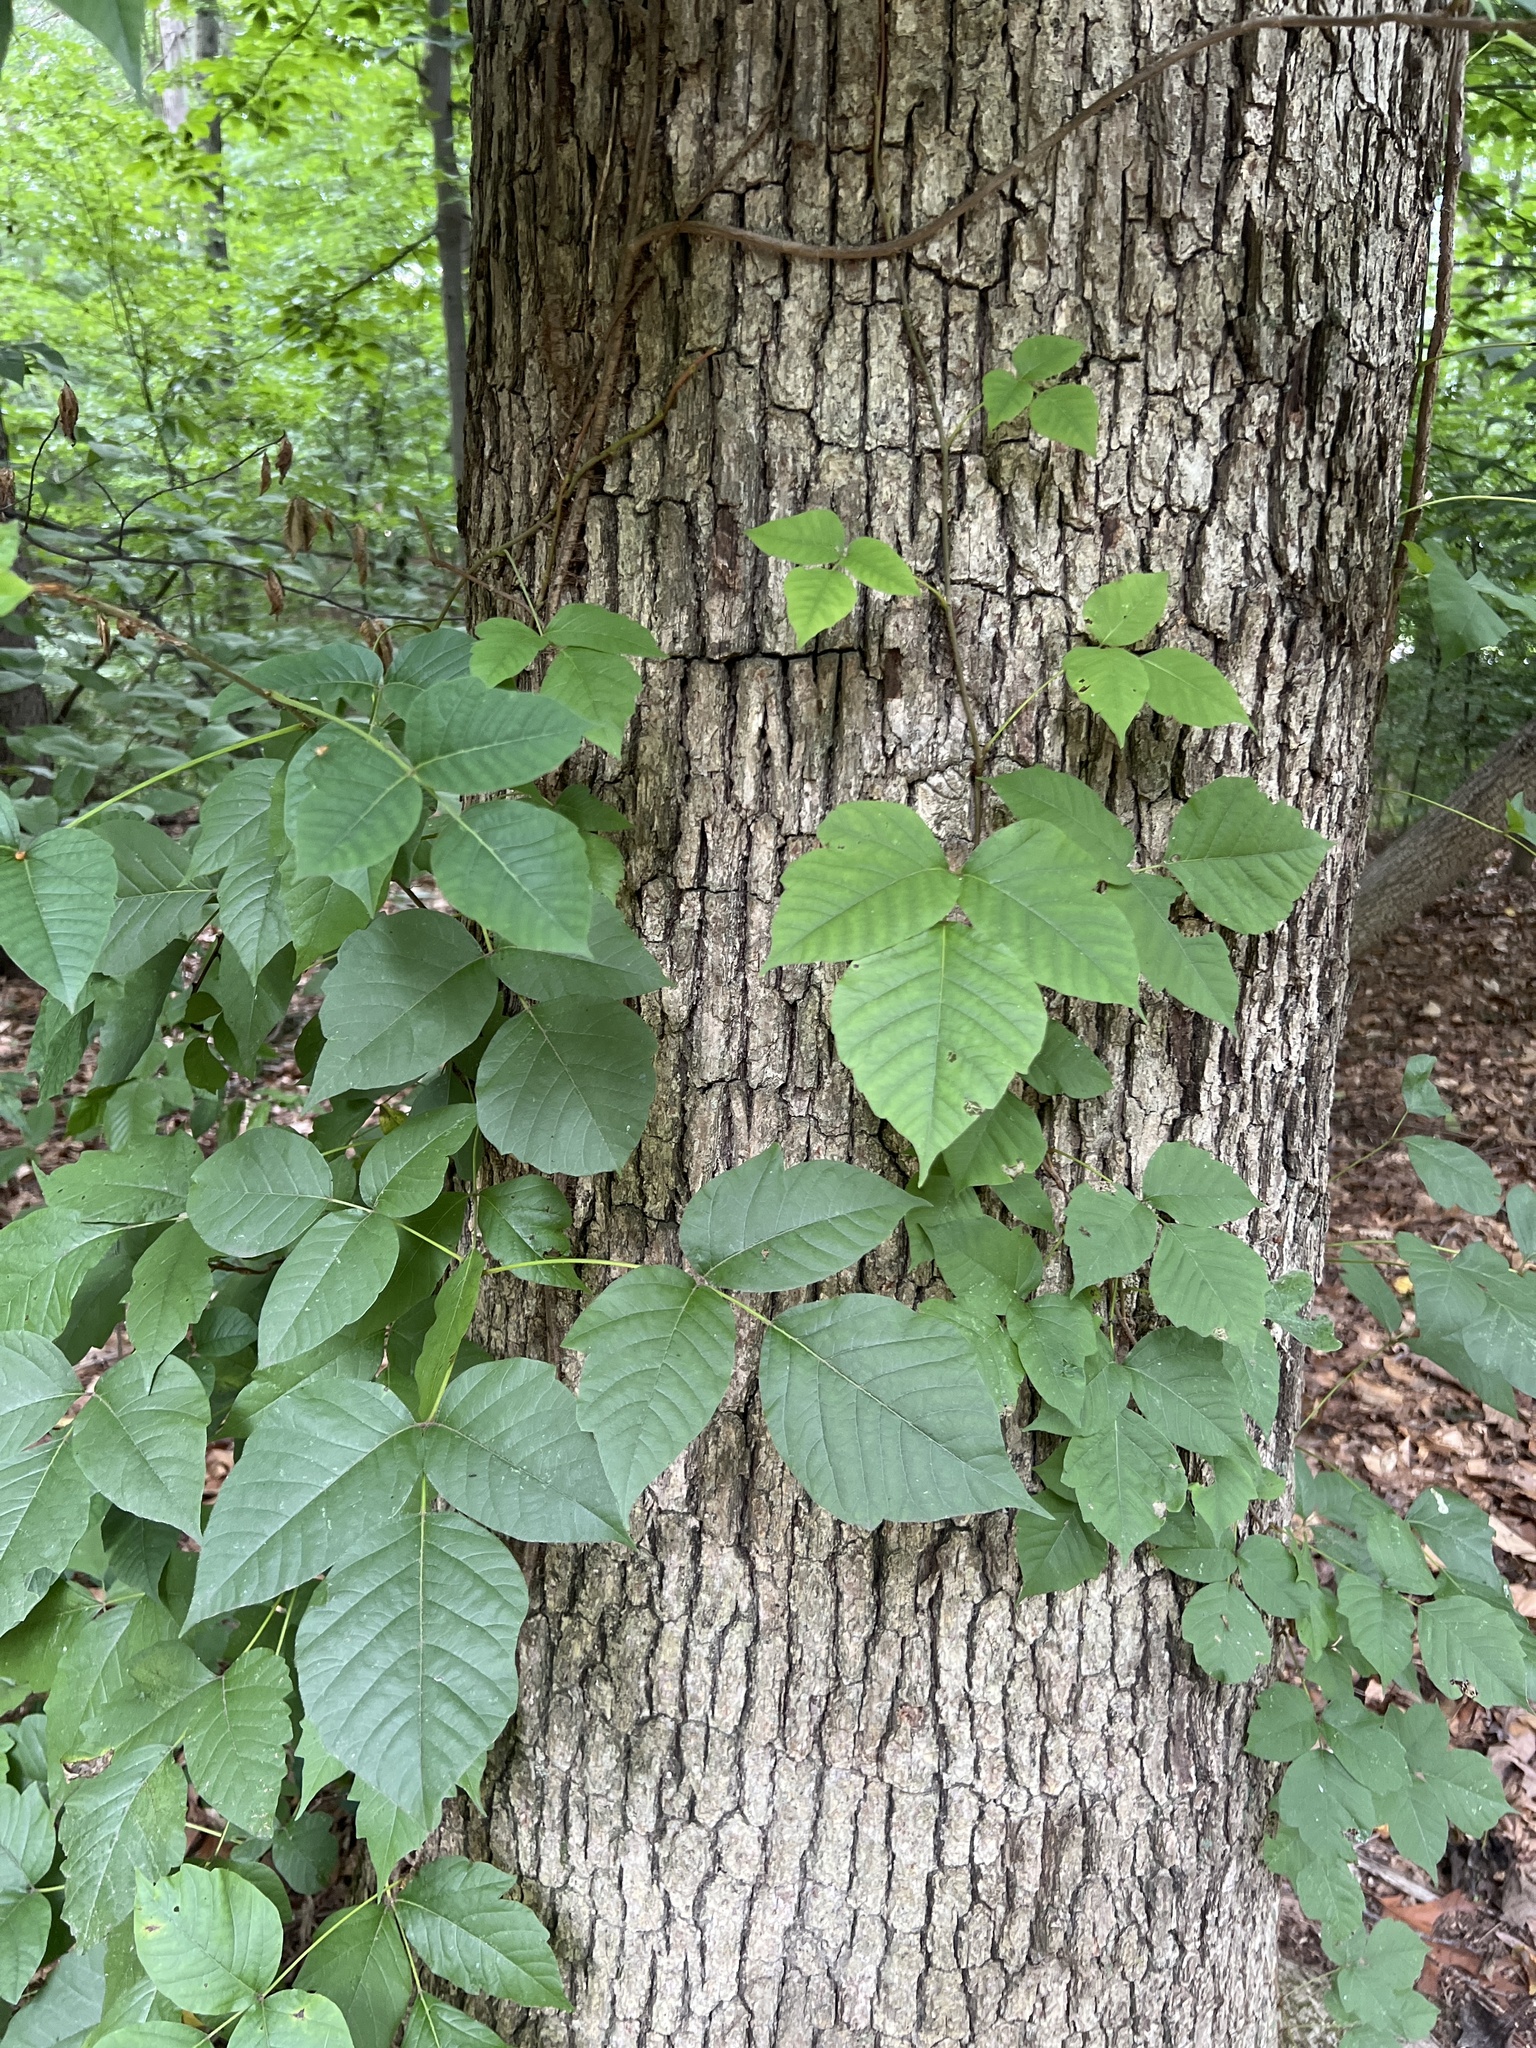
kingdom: Plantae
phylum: Tracheophyta
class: Magnoliopsida
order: Sapindales
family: Anacardiaceae
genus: Toxicodendron
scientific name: Toxicodendron radicans
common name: Poison ivy
